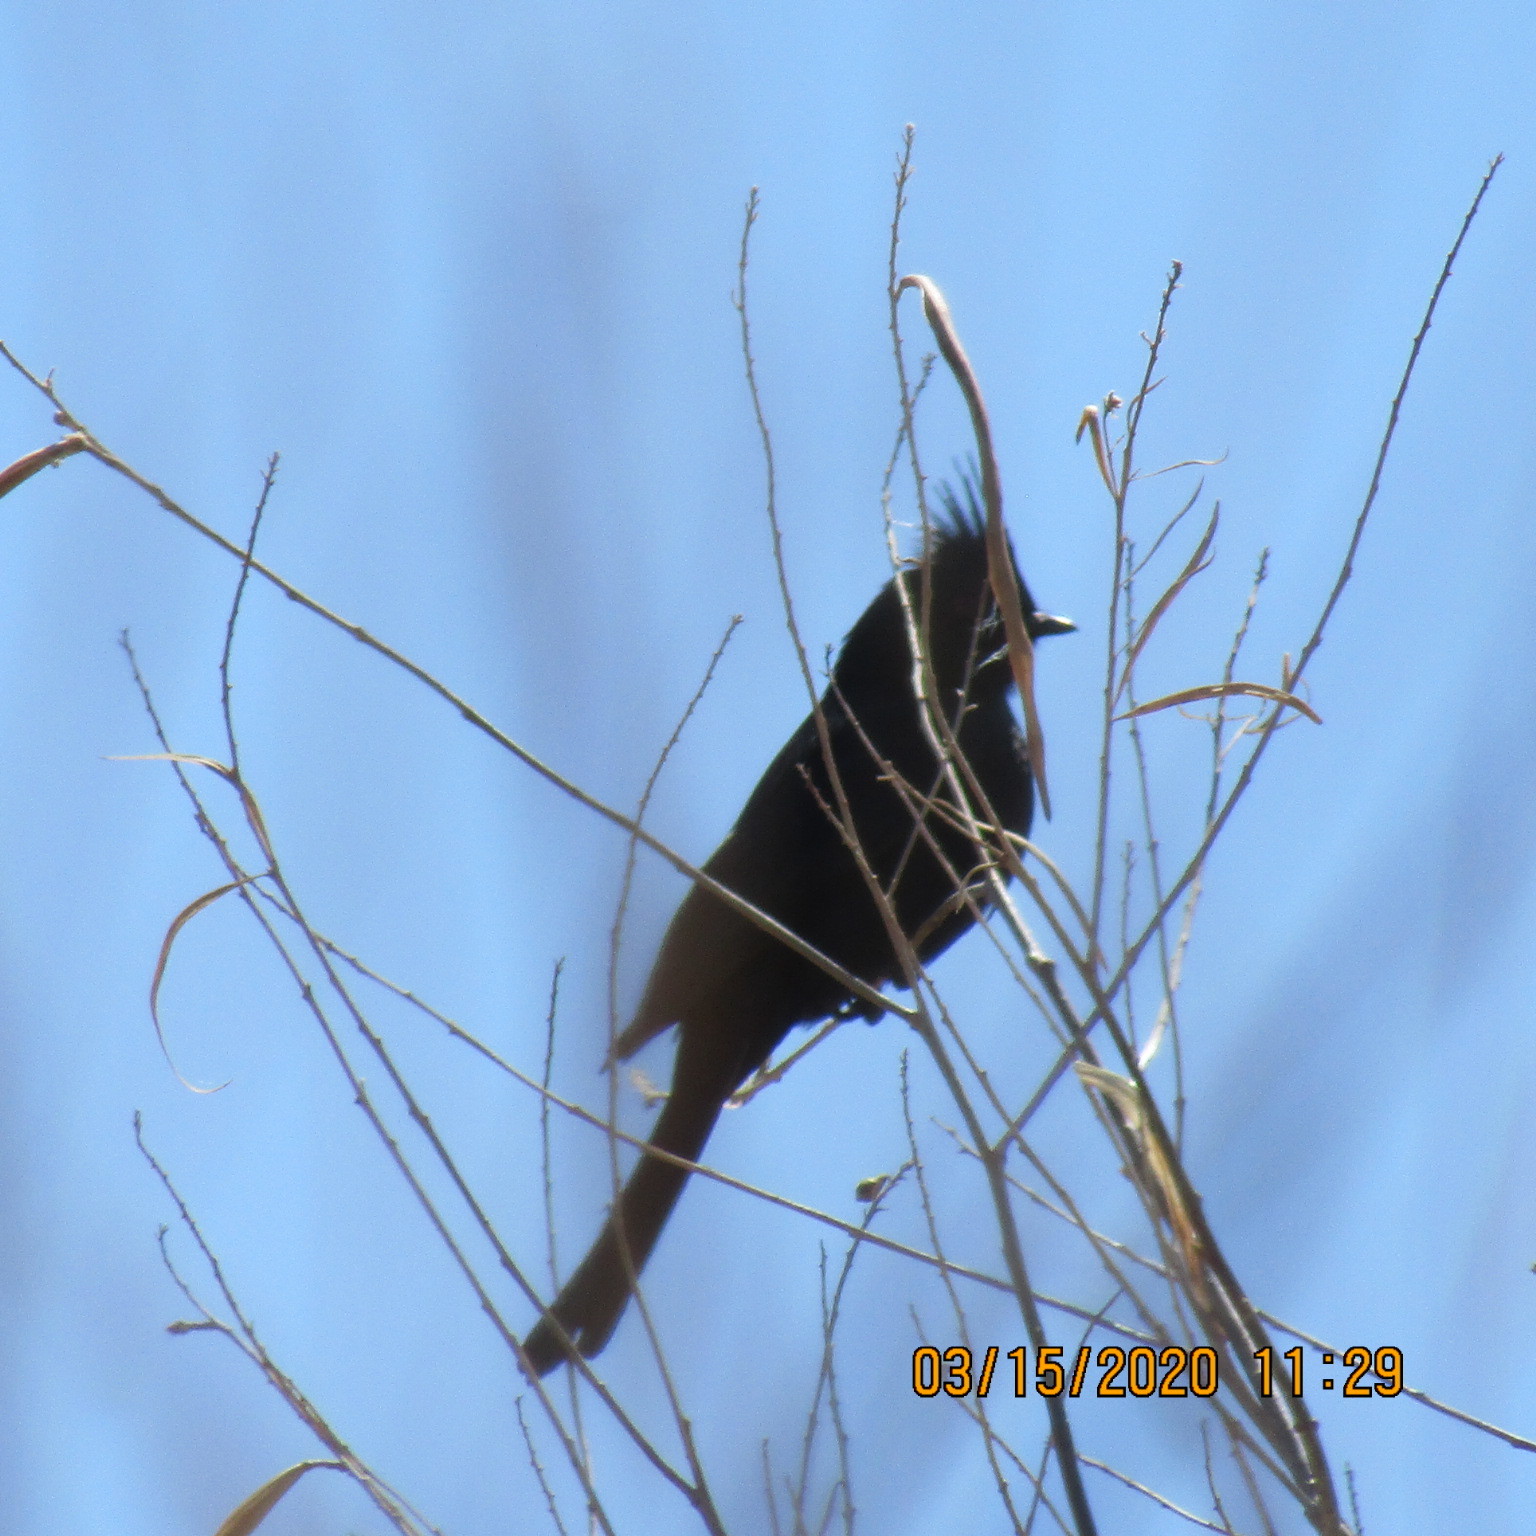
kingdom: Animalia
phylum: Chordata
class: Aves
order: Passeriformes
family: Ptilogonatidae
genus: Phainopepla
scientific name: Phainopepla nitens
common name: Phainopepla
